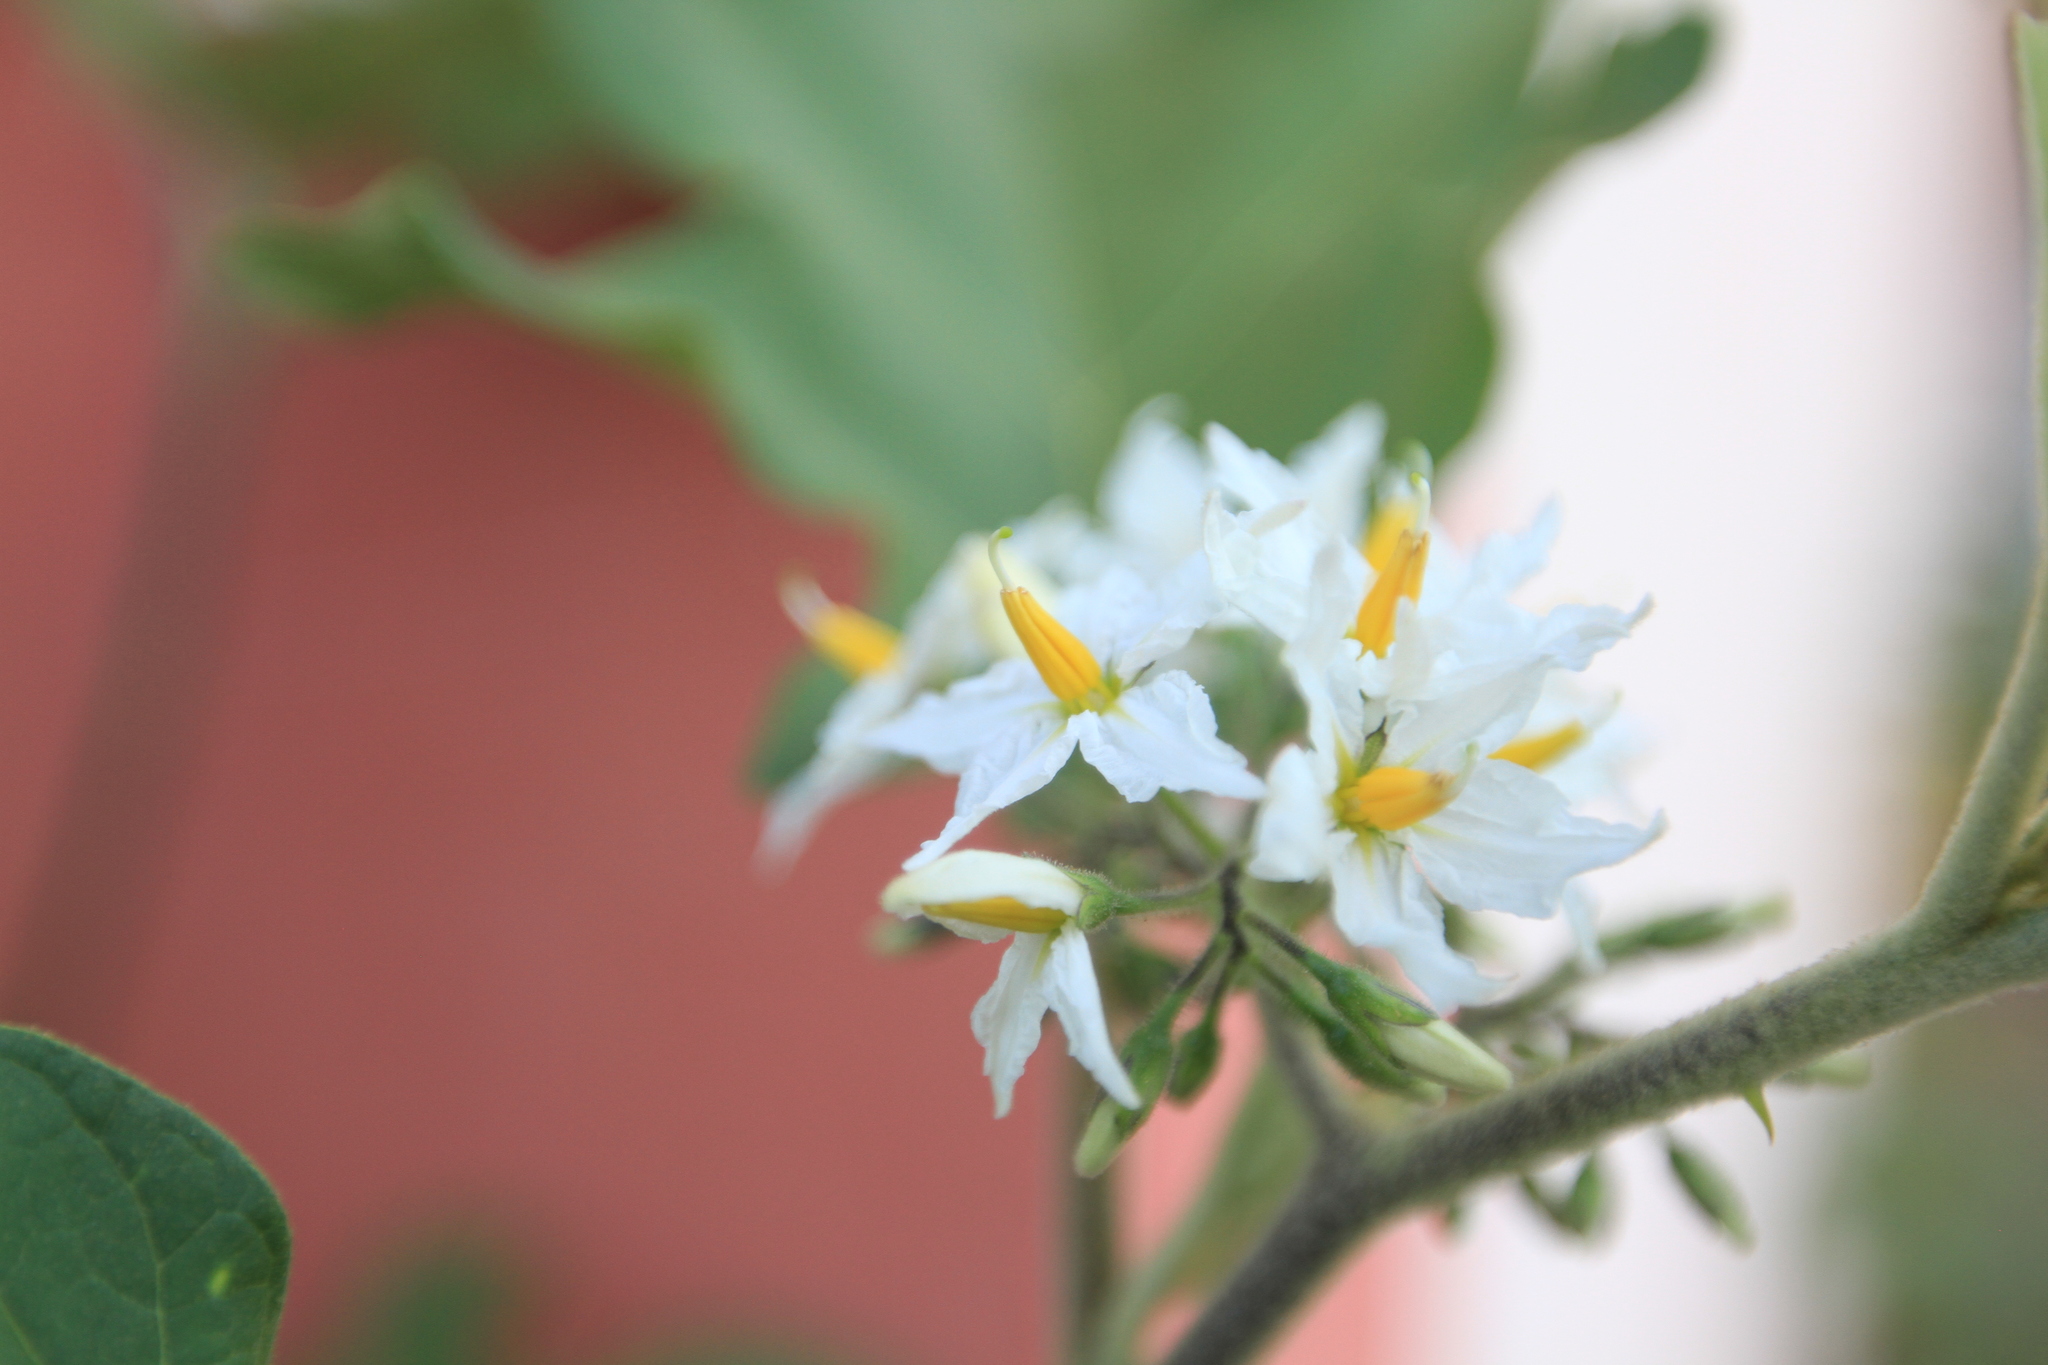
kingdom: Plantae
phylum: Tracheophyta
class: Magnoliopsida
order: Solanales
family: Solanaceae
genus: Solanum
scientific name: Solanum torvum
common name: Turkey berry
